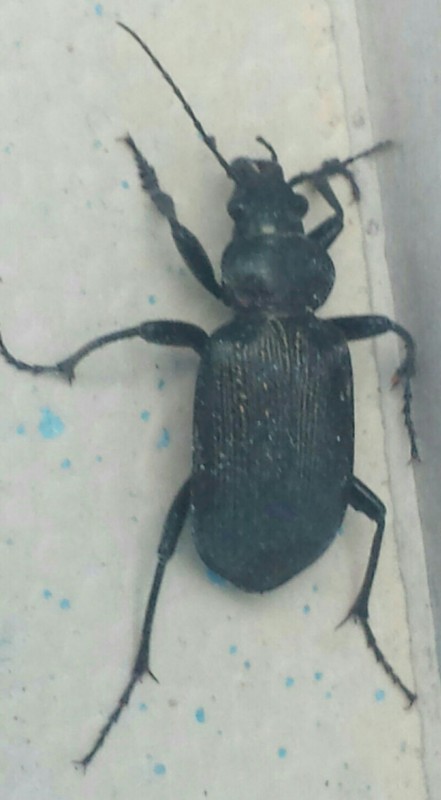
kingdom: Animalia
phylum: Arthropoda
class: Insecta
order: Coleoptera
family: Carabidae
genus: Calosoma
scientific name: Calosoma sayi
